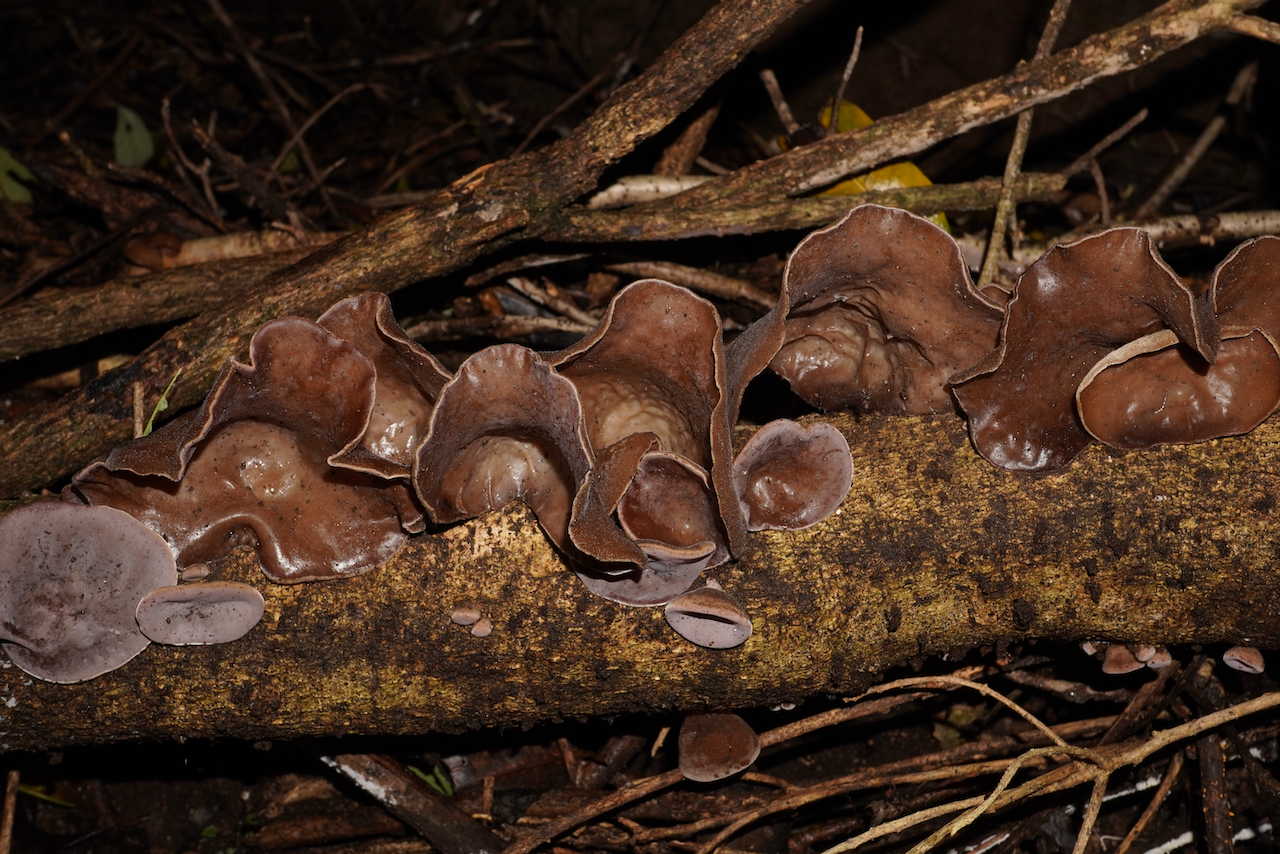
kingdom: Fungi
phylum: Basidiomycota
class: Agaricomycetes
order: Auriculariales
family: Auriculariaceae
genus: Auricularia
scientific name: Auricularia cornea
